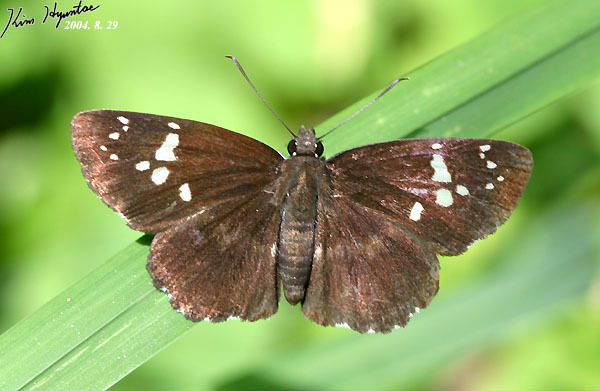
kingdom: Animalia
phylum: Arthropoda
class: Insecta
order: Lepidoptera
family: Hesperiidae
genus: Daimio
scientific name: Daimio tethys
